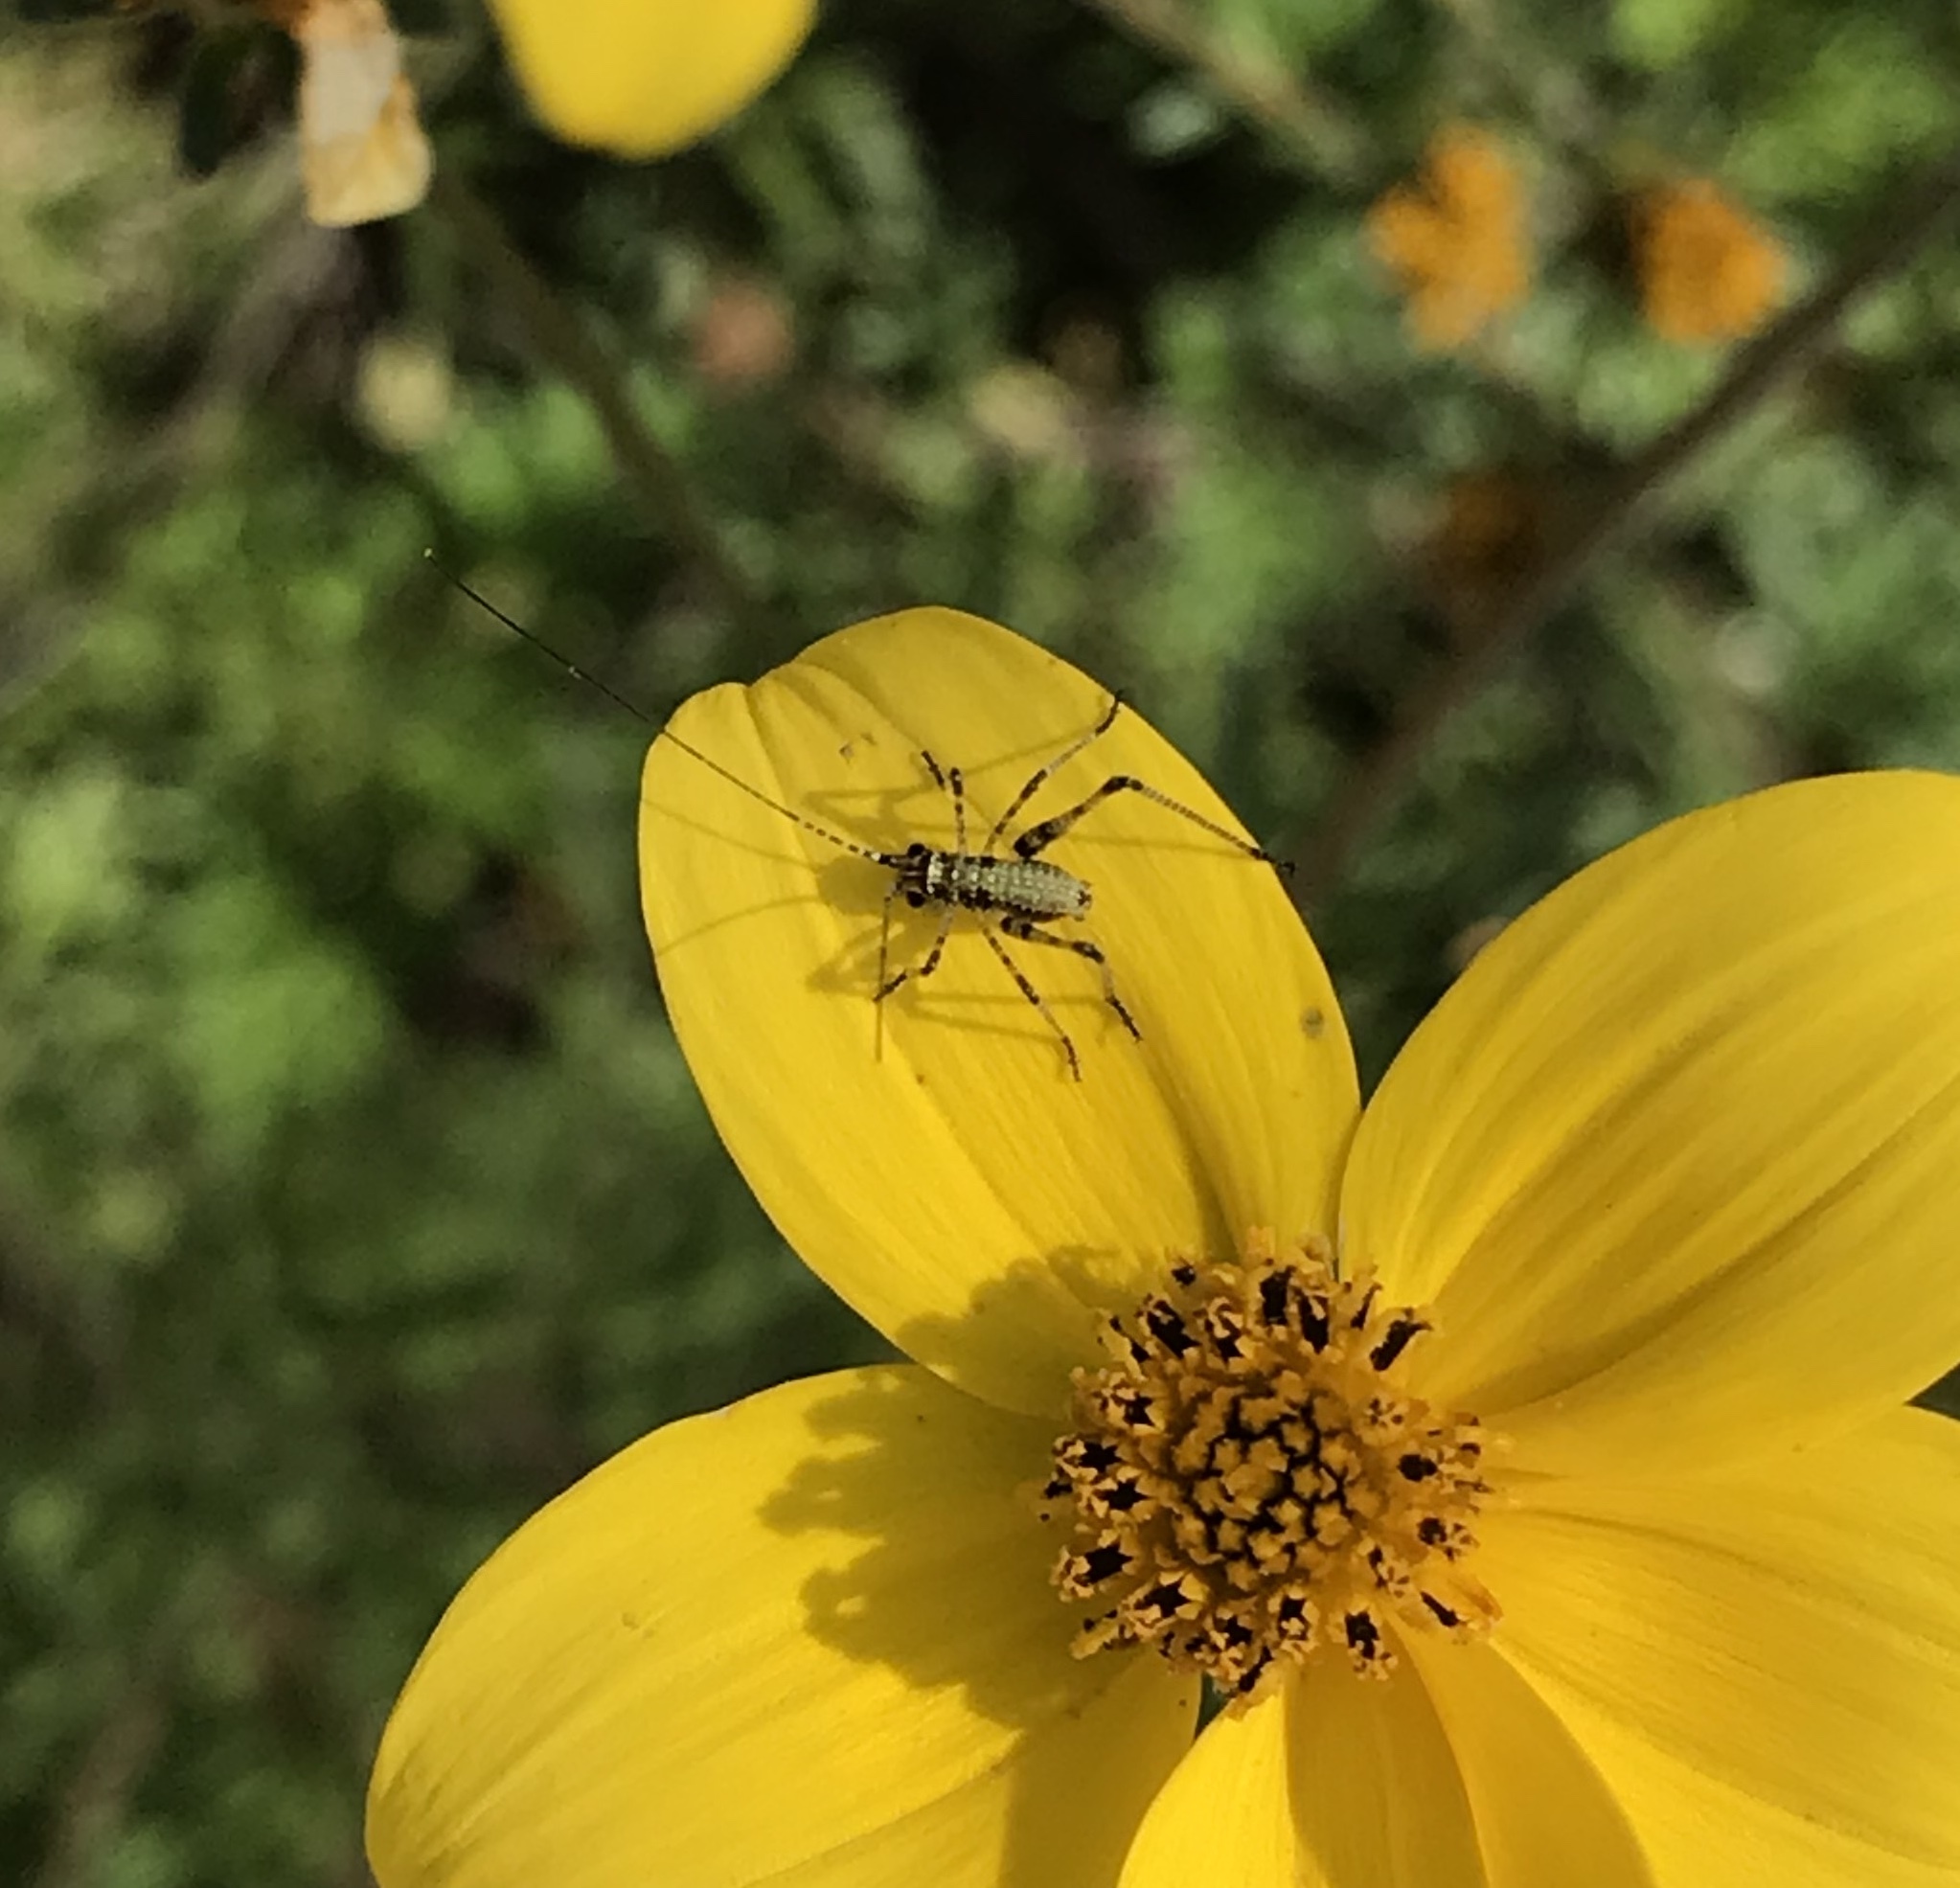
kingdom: Animalia
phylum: Arthropoda
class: Insecta
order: Orthoptera
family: Tettigoniidae
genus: Phaneroptera
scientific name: Phaneroptera nana
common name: Southern sickle bush-cricket
